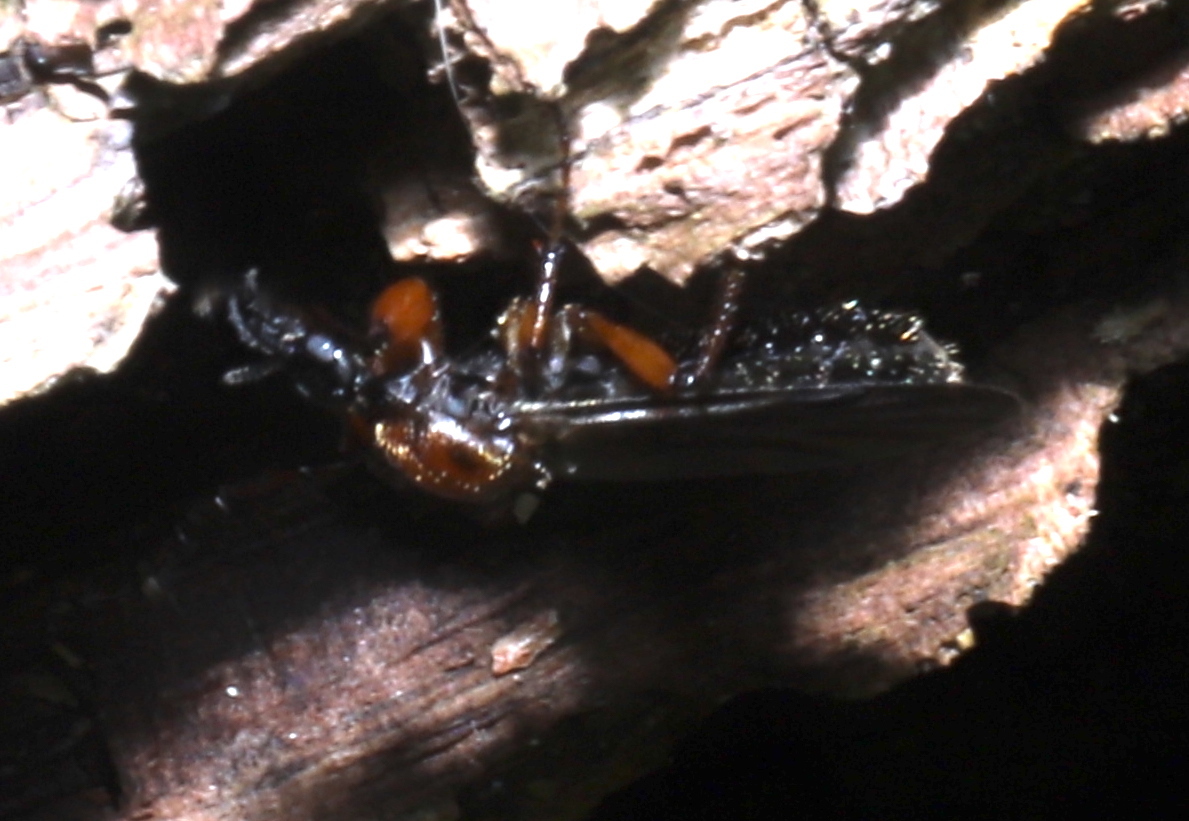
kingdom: Animalia
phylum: Arthropoda
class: Insecta
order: Diptera
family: Bibionidae
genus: Bibio
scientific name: Bibio articulatus
